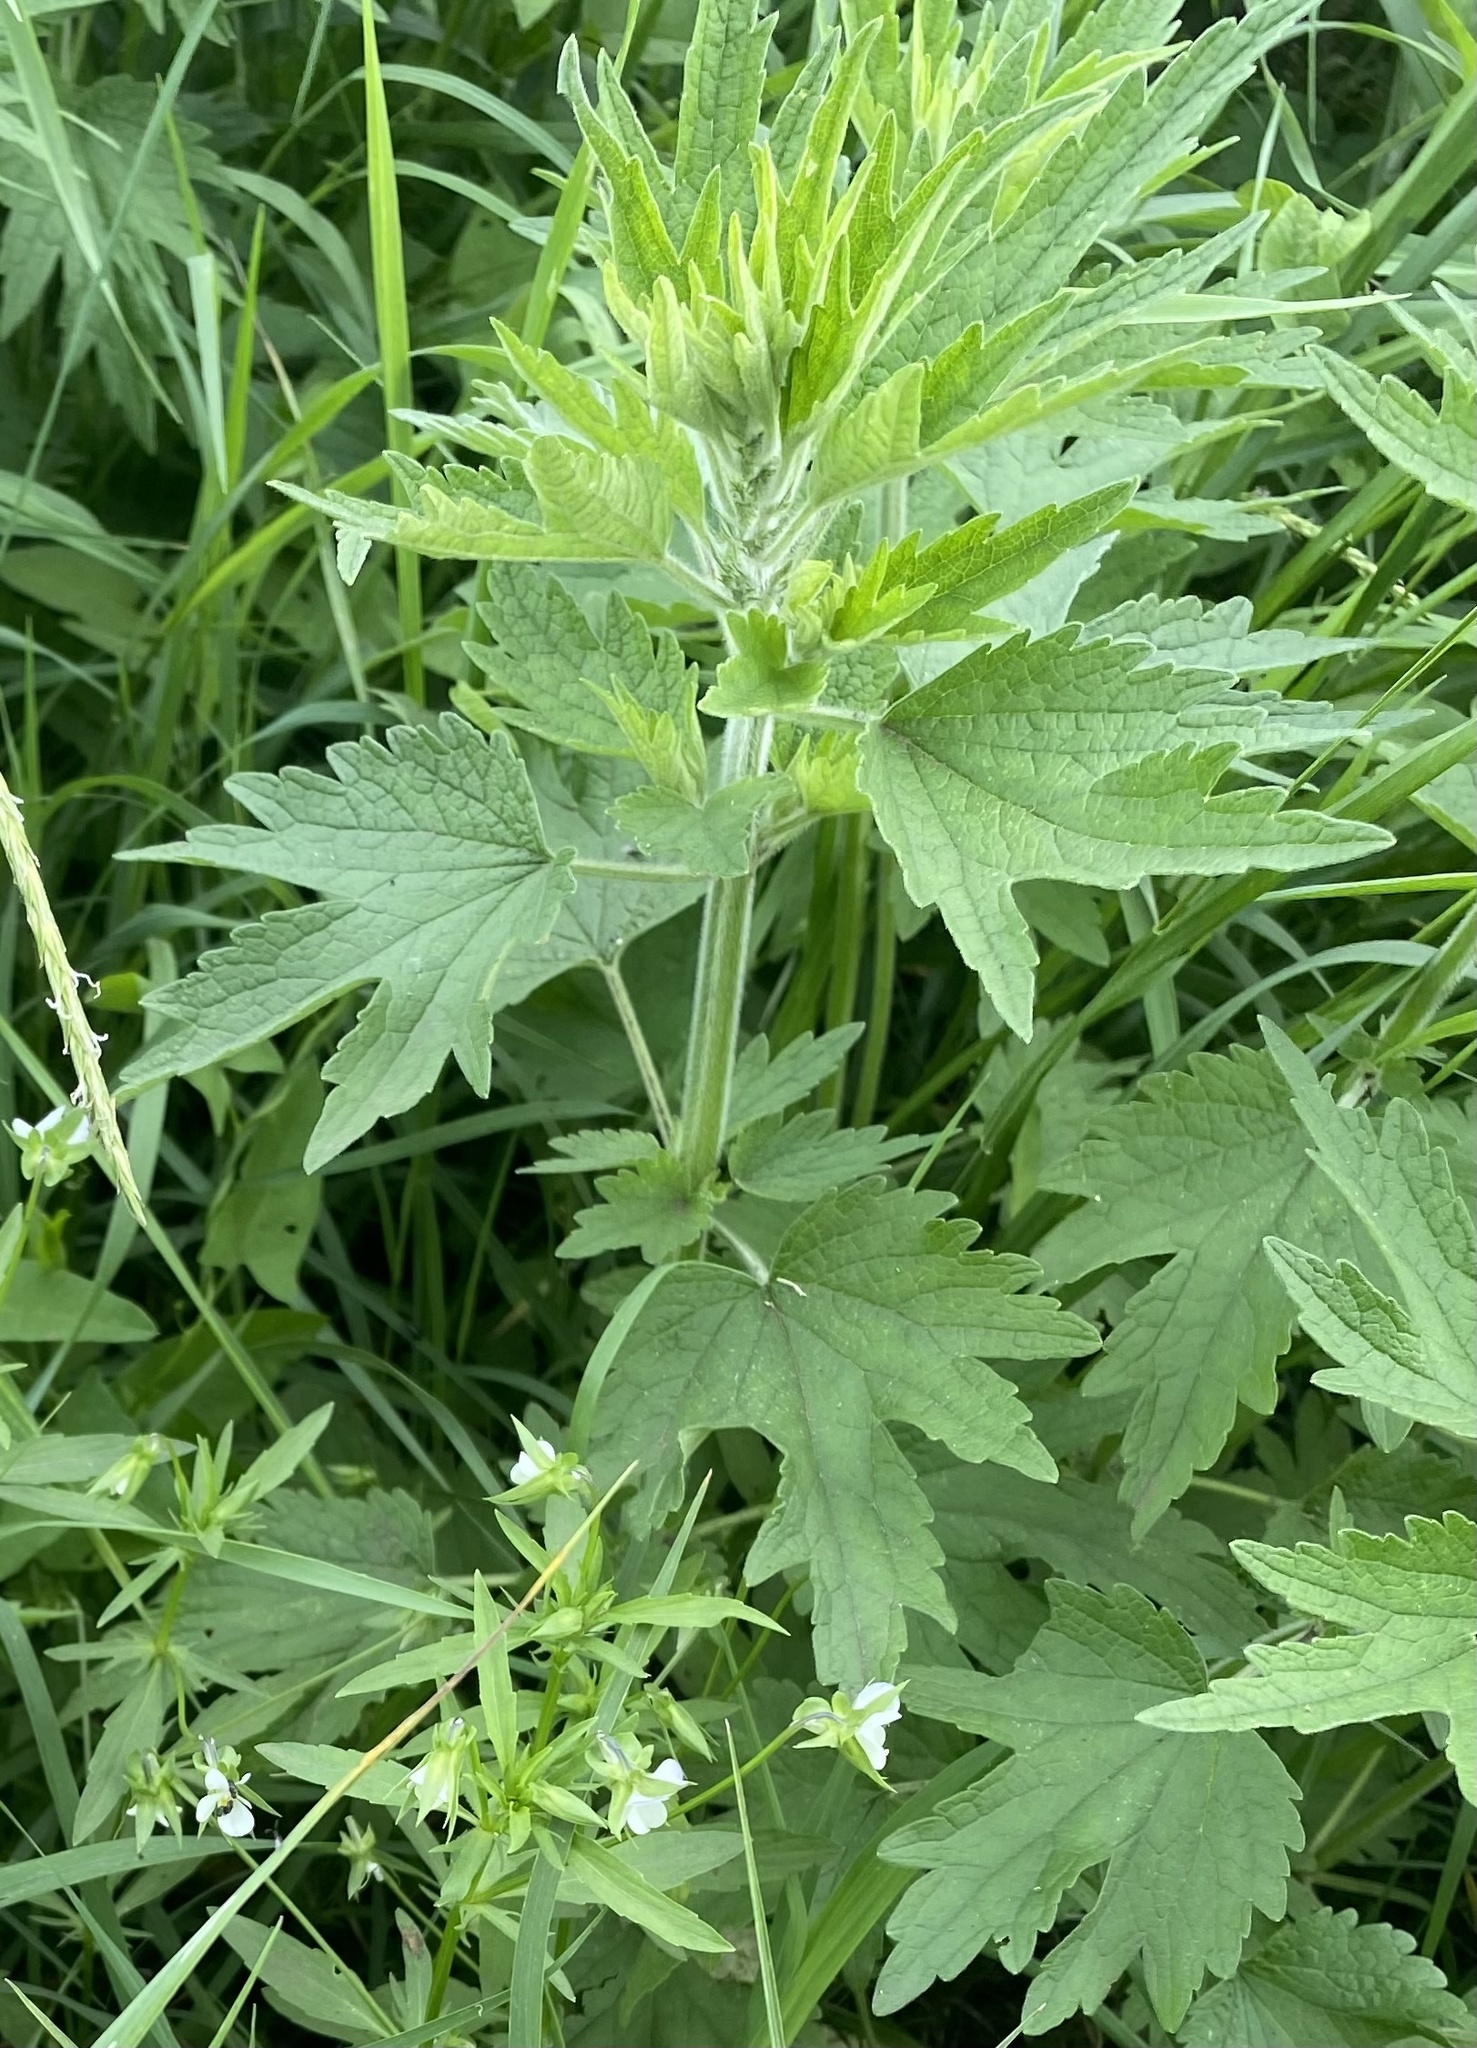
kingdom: Plantae
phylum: Tracheophyta
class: Magnoliopsida
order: Lamiales
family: Lamiaceae
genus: Leonurus
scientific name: Leonurus quinquelobatus
